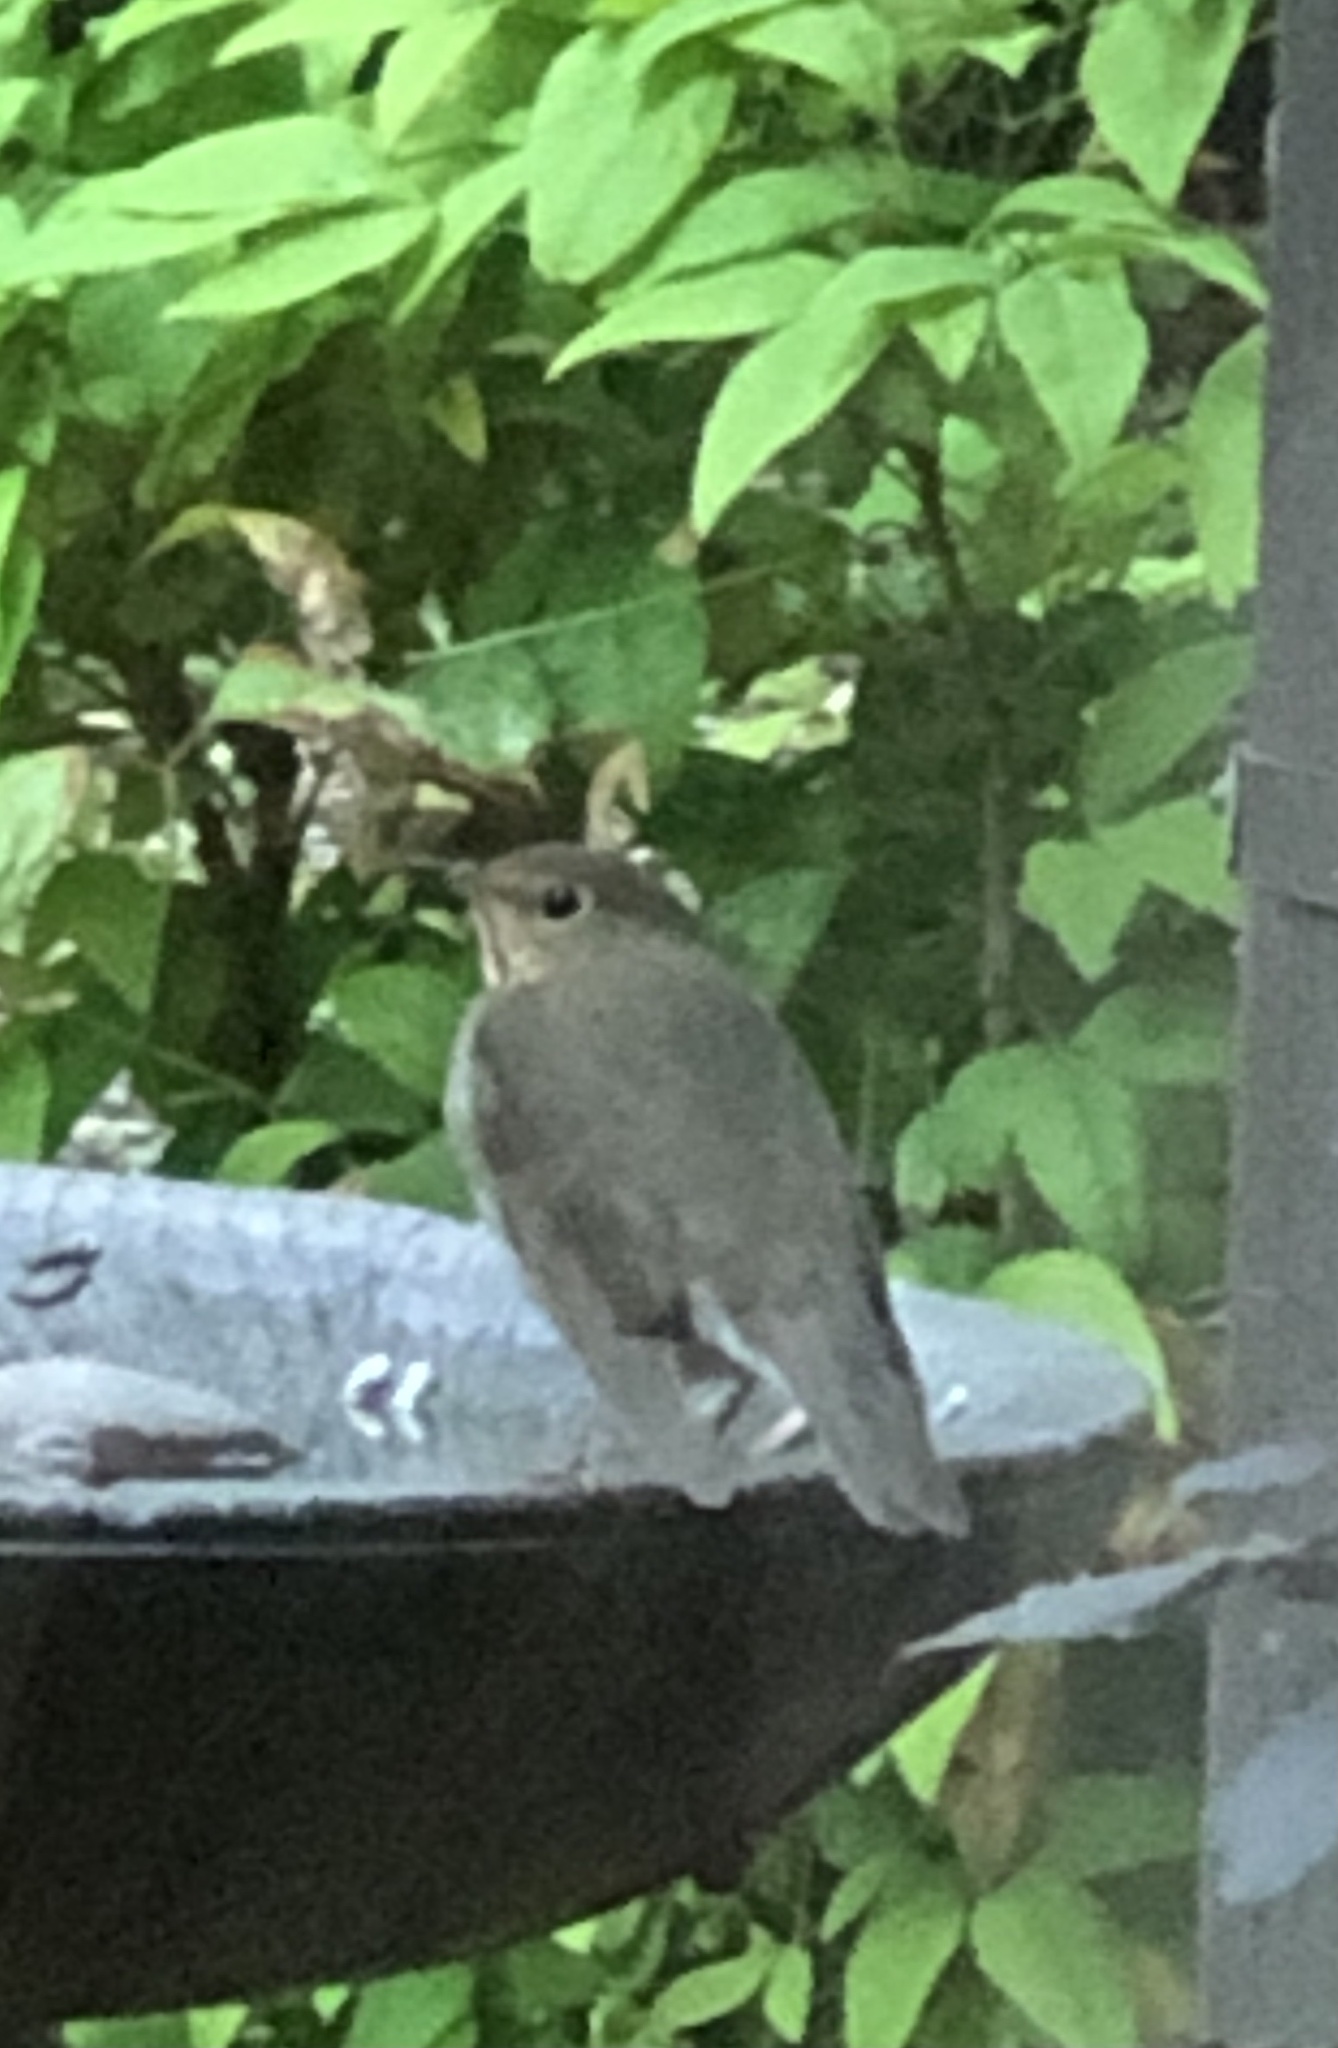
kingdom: Animalia
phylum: Chordata
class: Aves
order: Passeriformes
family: Turdidae
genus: Catharus
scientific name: Catharus ustulatus
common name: Swainson's thrush
